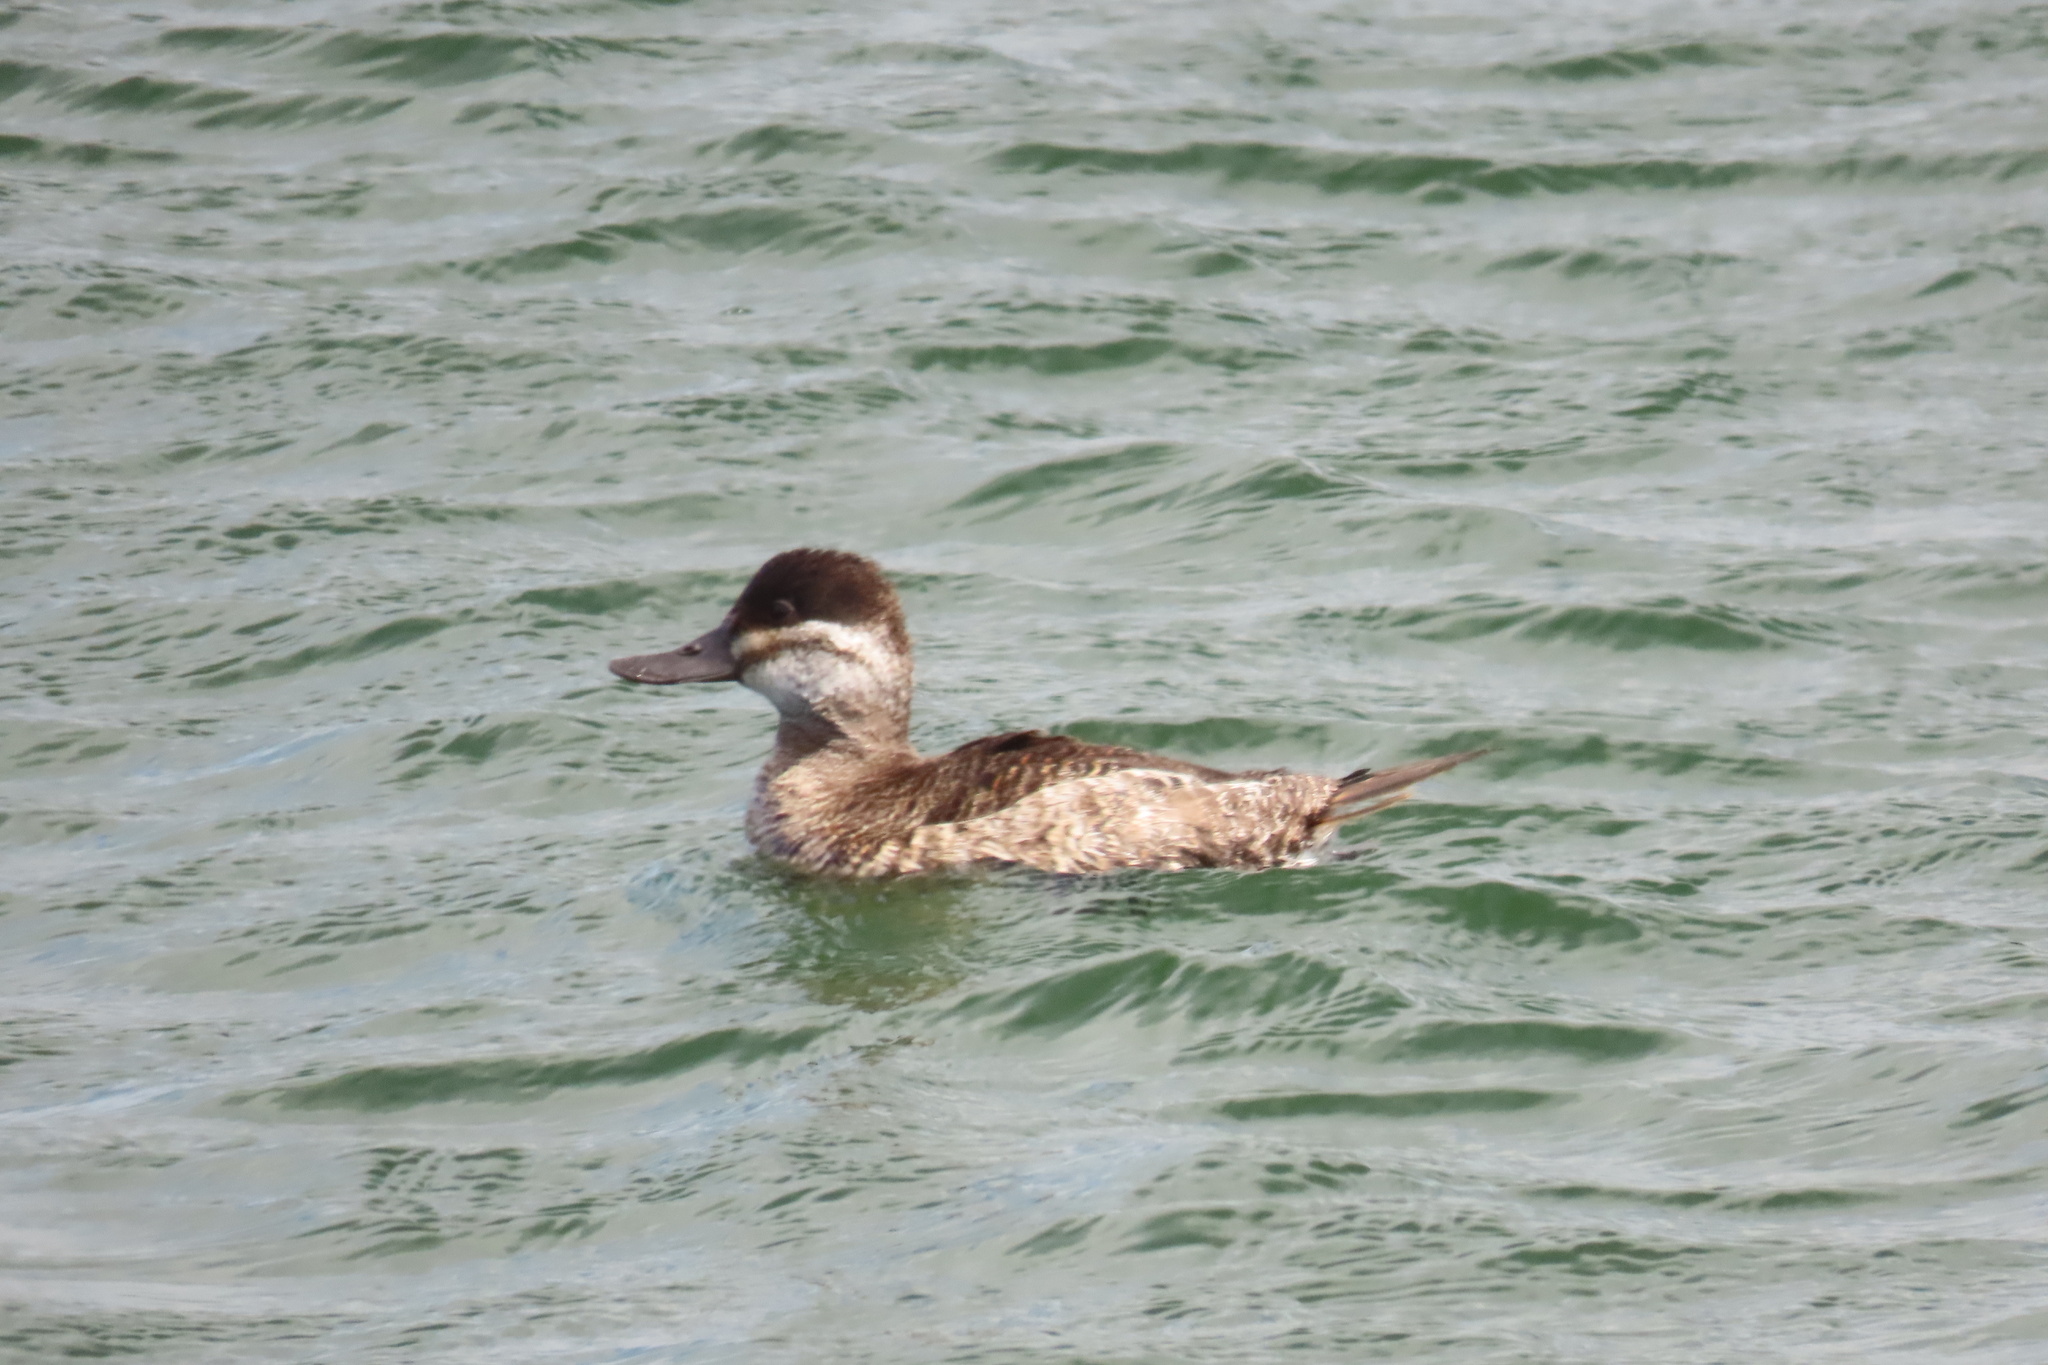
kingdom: Animalia
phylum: Chordata
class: Aves
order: Anseriformes
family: Anatidae
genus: Oxyura
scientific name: Oxyura jamaicensis
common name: Ruddy duck
